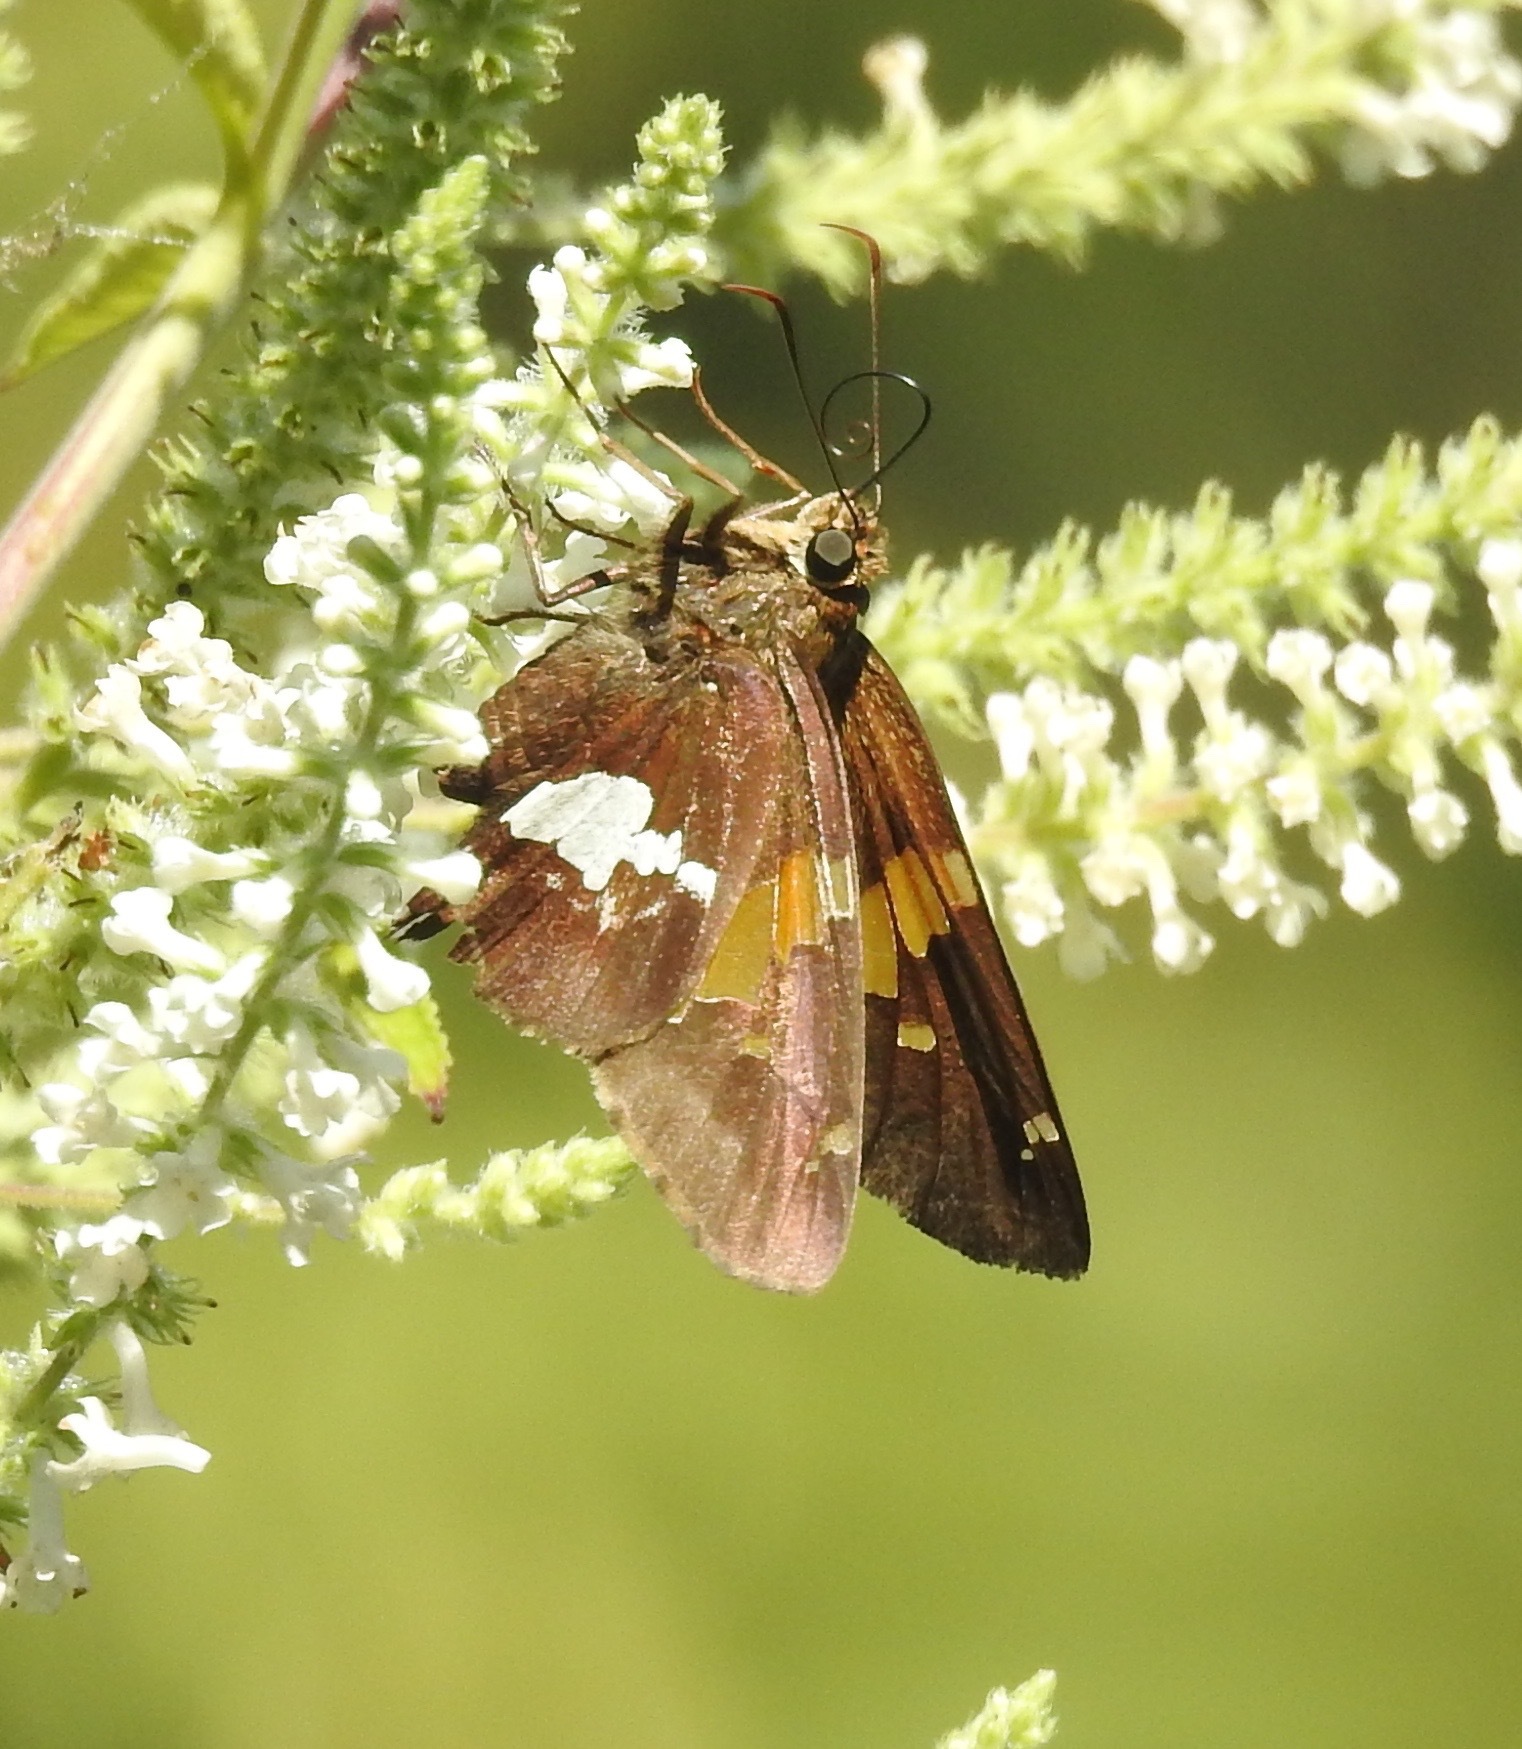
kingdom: Animalia
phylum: Arthropoda
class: Insecta
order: Lepidoptera
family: Hesperiidae
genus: Epargyreus
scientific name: Epargyreus clarus
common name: Silver-spotted skipper
